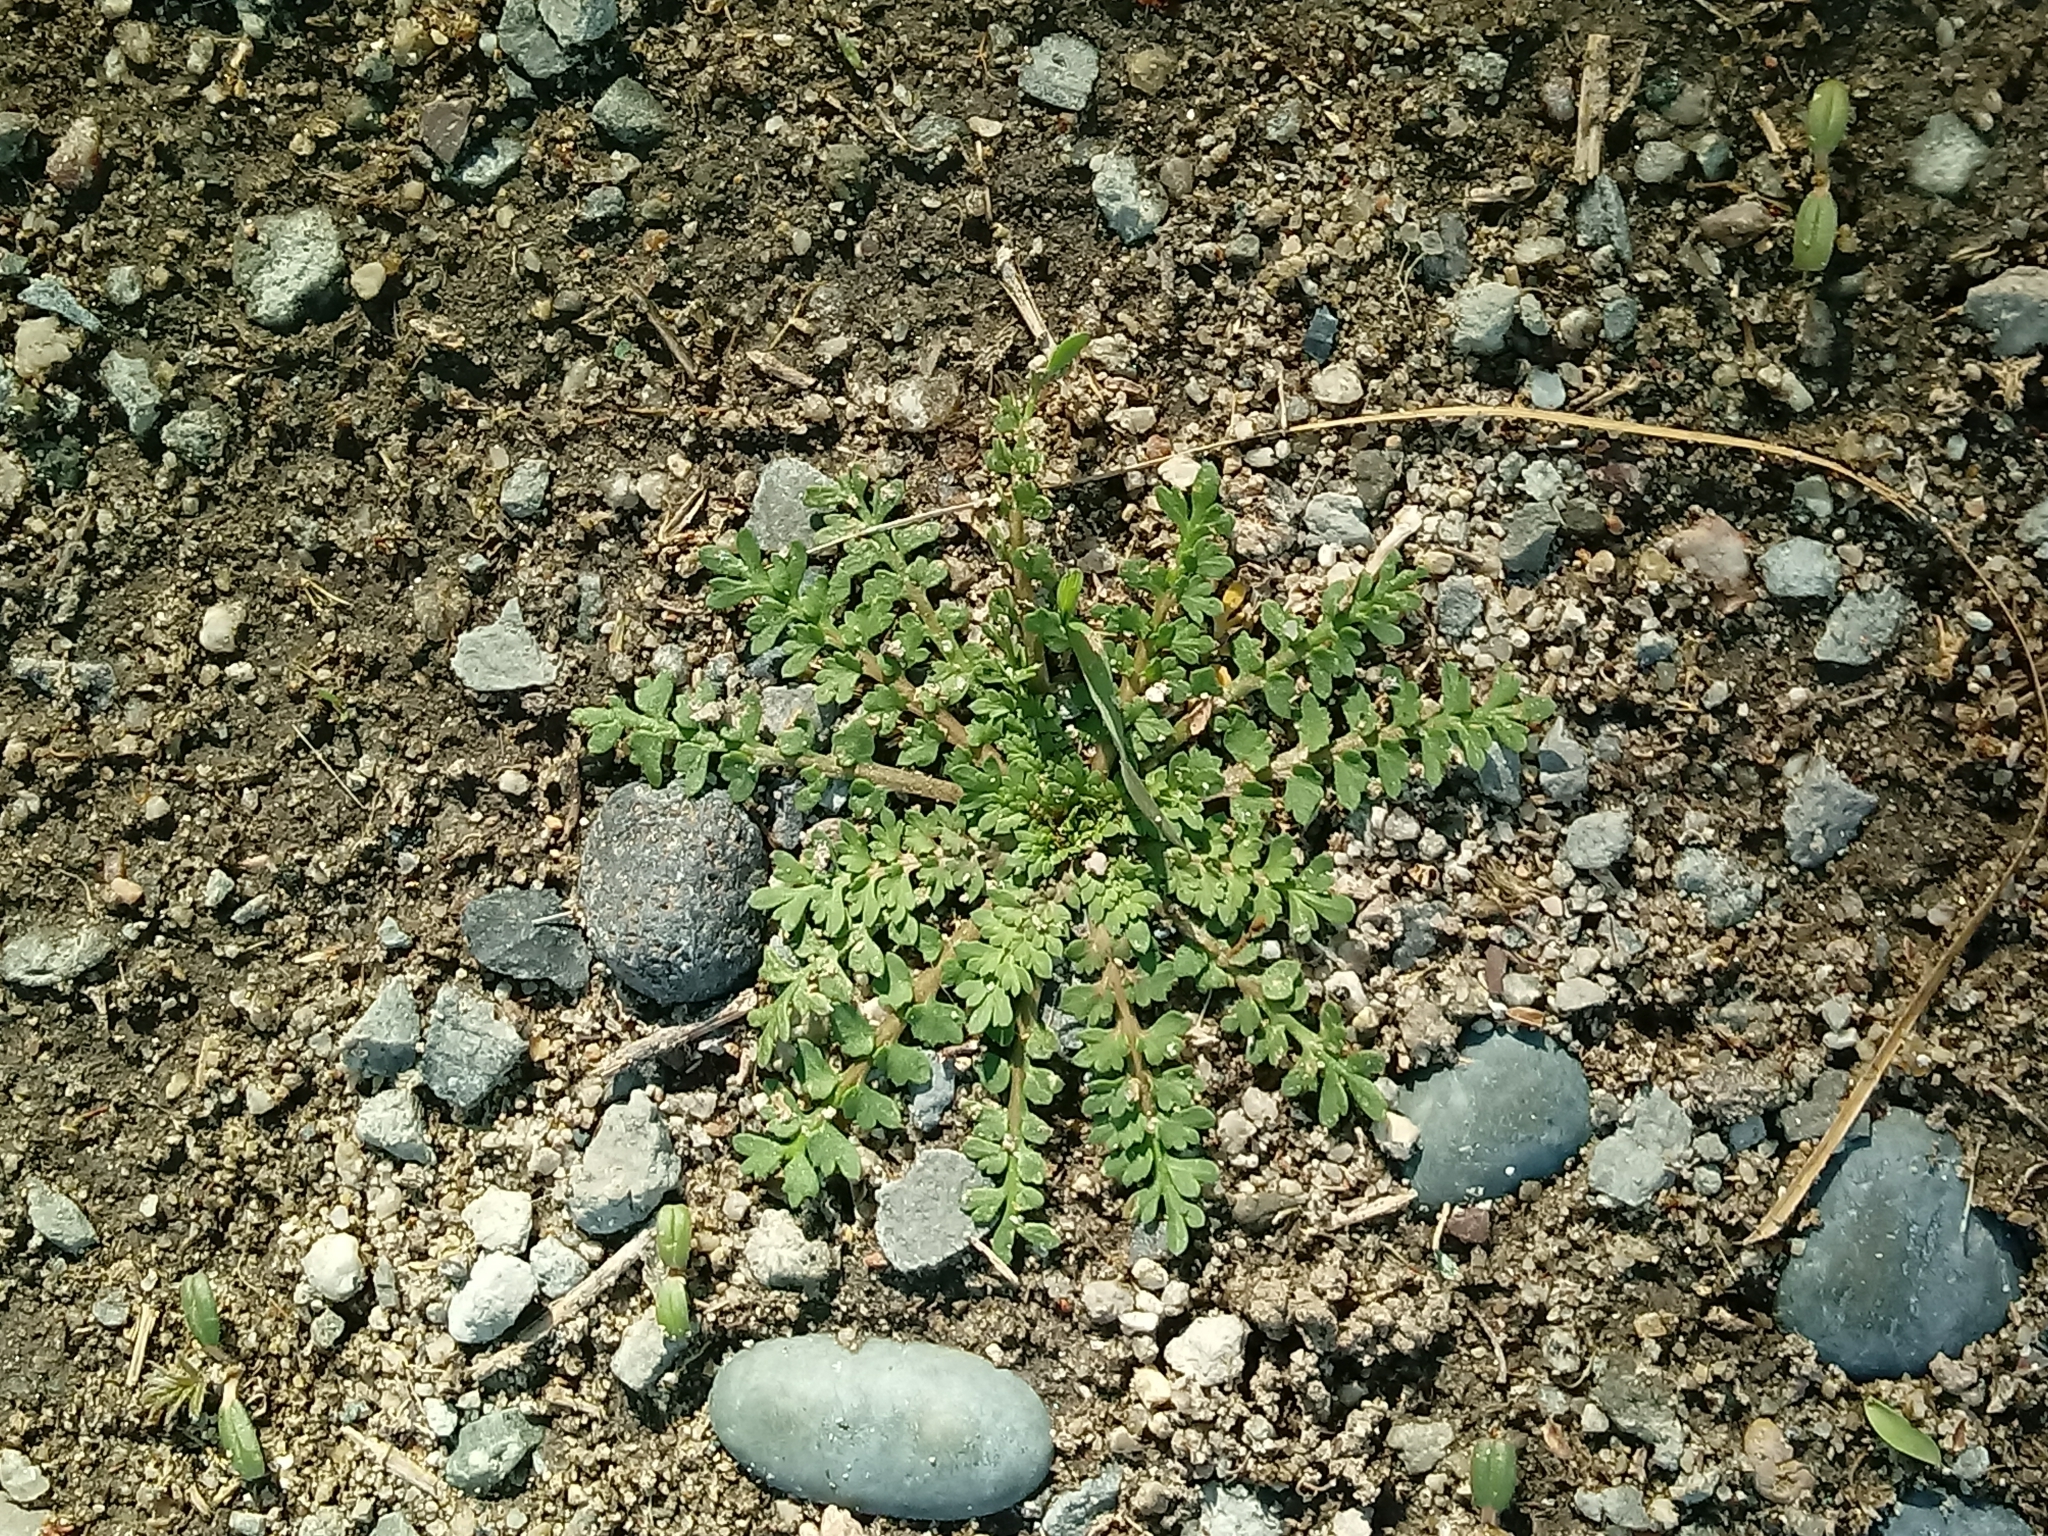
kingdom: Plantae
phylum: Tracheophyta
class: Magnoliopsida
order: Brassicales
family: Brassicaceae
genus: Lepidium
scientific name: Lepidium didymum
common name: Lesser swinecress
